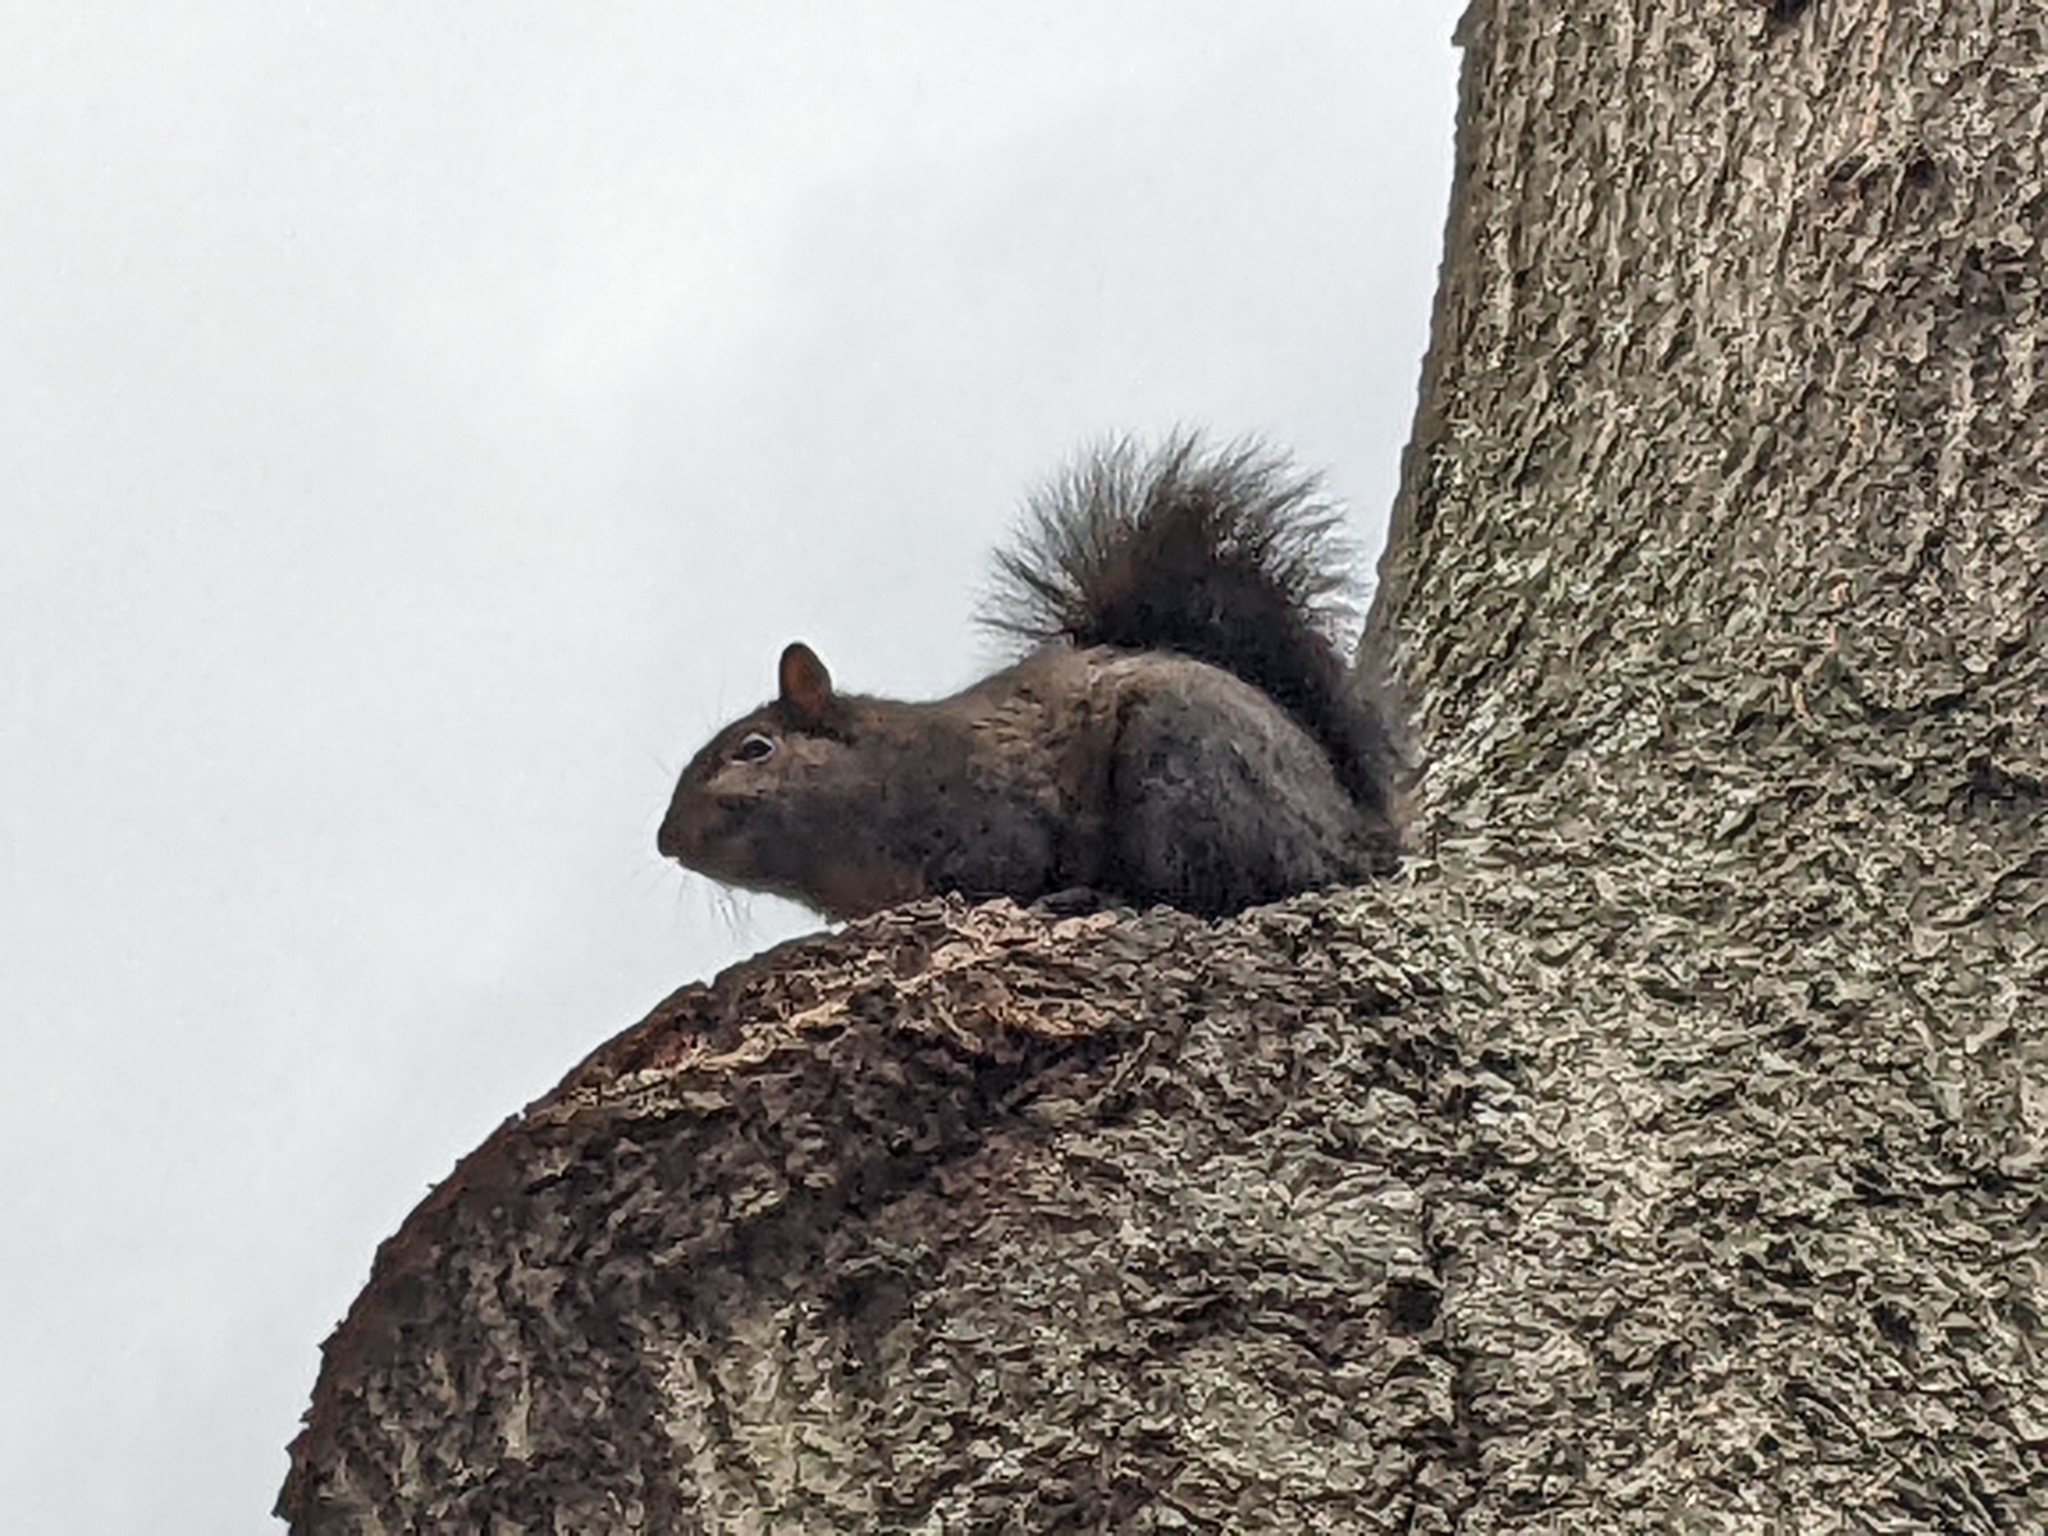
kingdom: Animalia
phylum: Chordata
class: Mammalia
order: Rodentia
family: Sciuridae
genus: Sciurus
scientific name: Sciurus carolinensis
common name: Eastern gray squirrel
